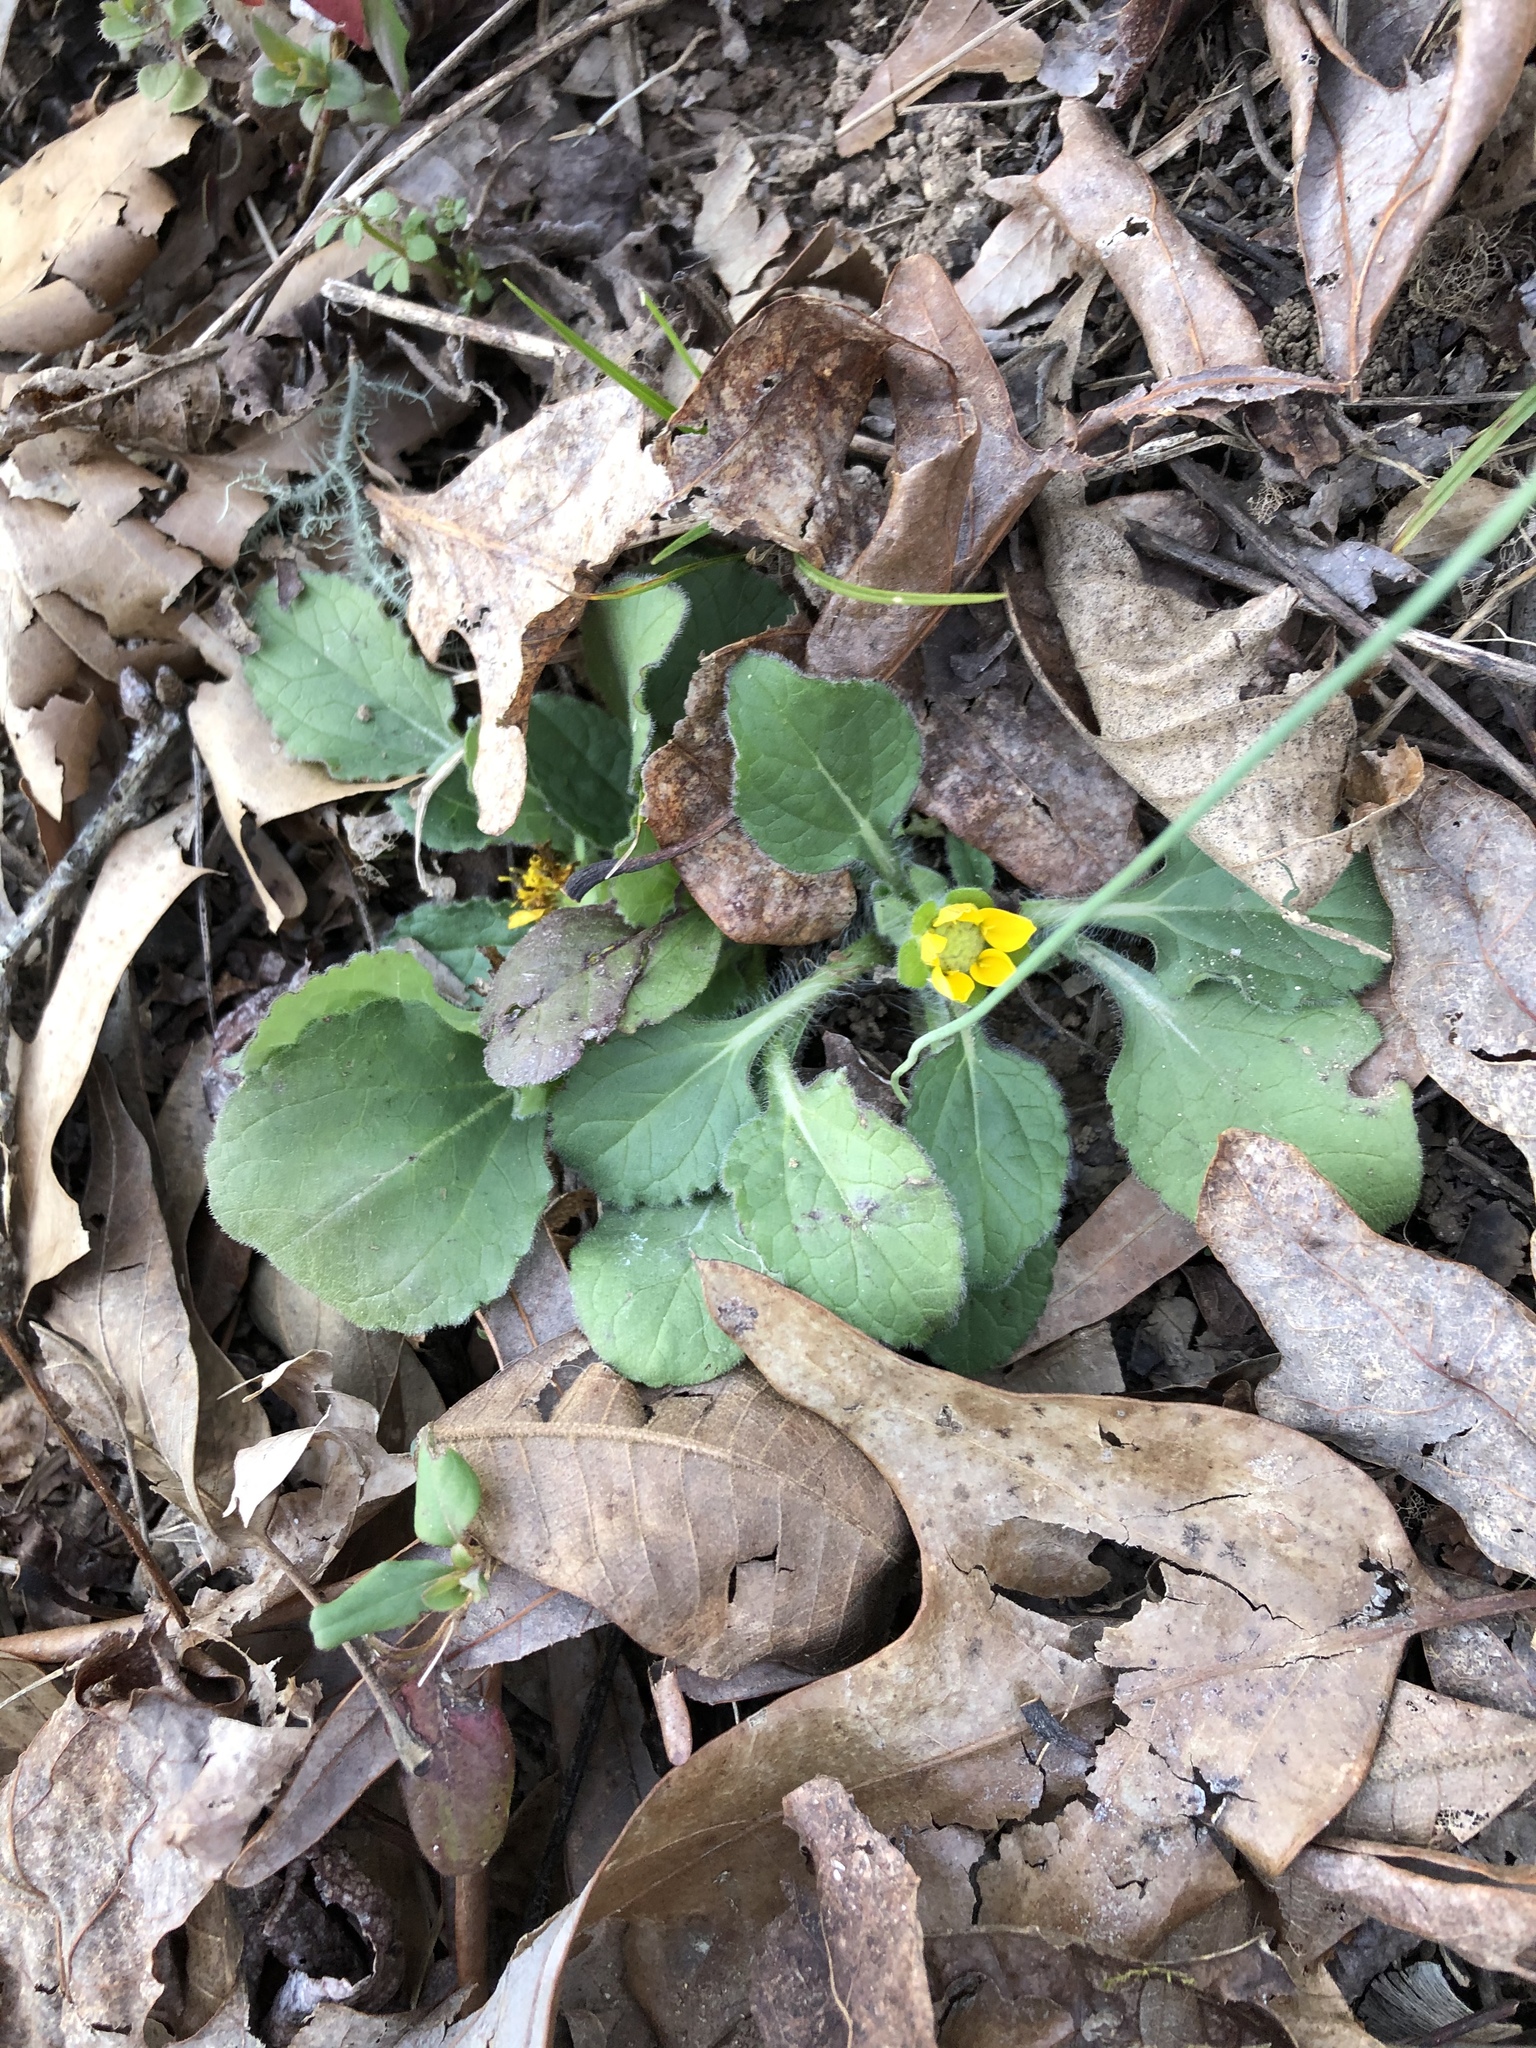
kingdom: Plantae
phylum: Tracheophyta
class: Magnoliopsida
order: Asterales
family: Asteraceae
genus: Chrysogonum
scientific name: Chrysogonum virginianum
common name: Golden-knee
